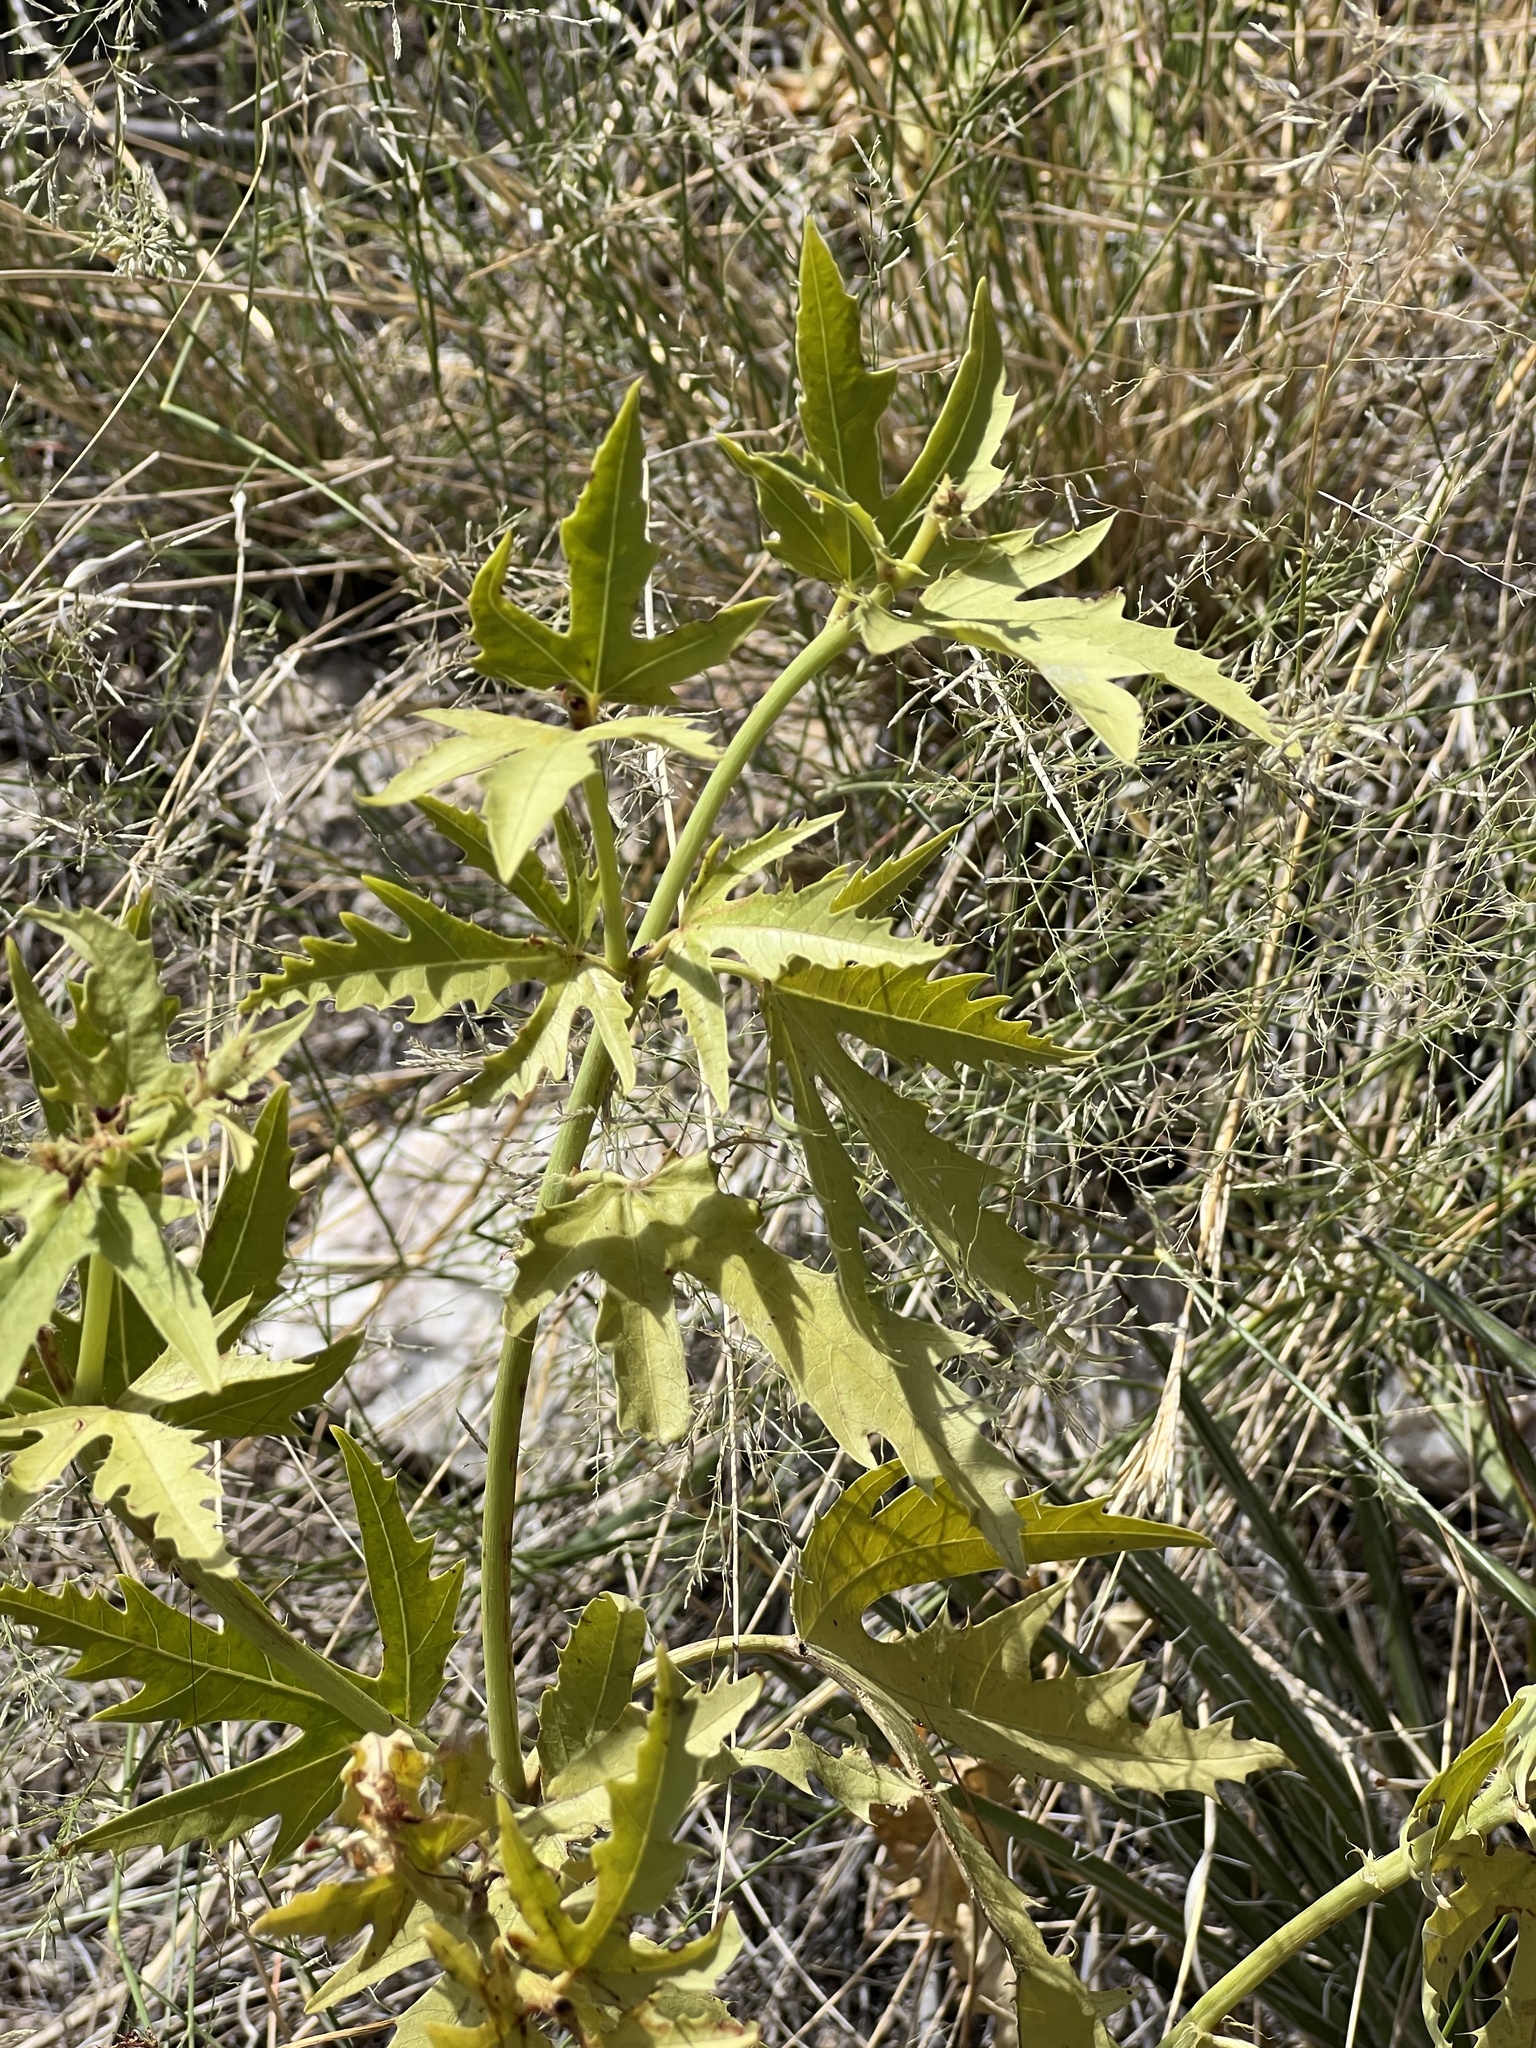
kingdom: Plantae
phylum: Tracheophyta
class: Magnoliopsida
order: Malpighiales
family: Euphorbiaceae
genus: Jatropha
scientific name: Jatropha macrorhiza
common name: Ragged nettlespurge
